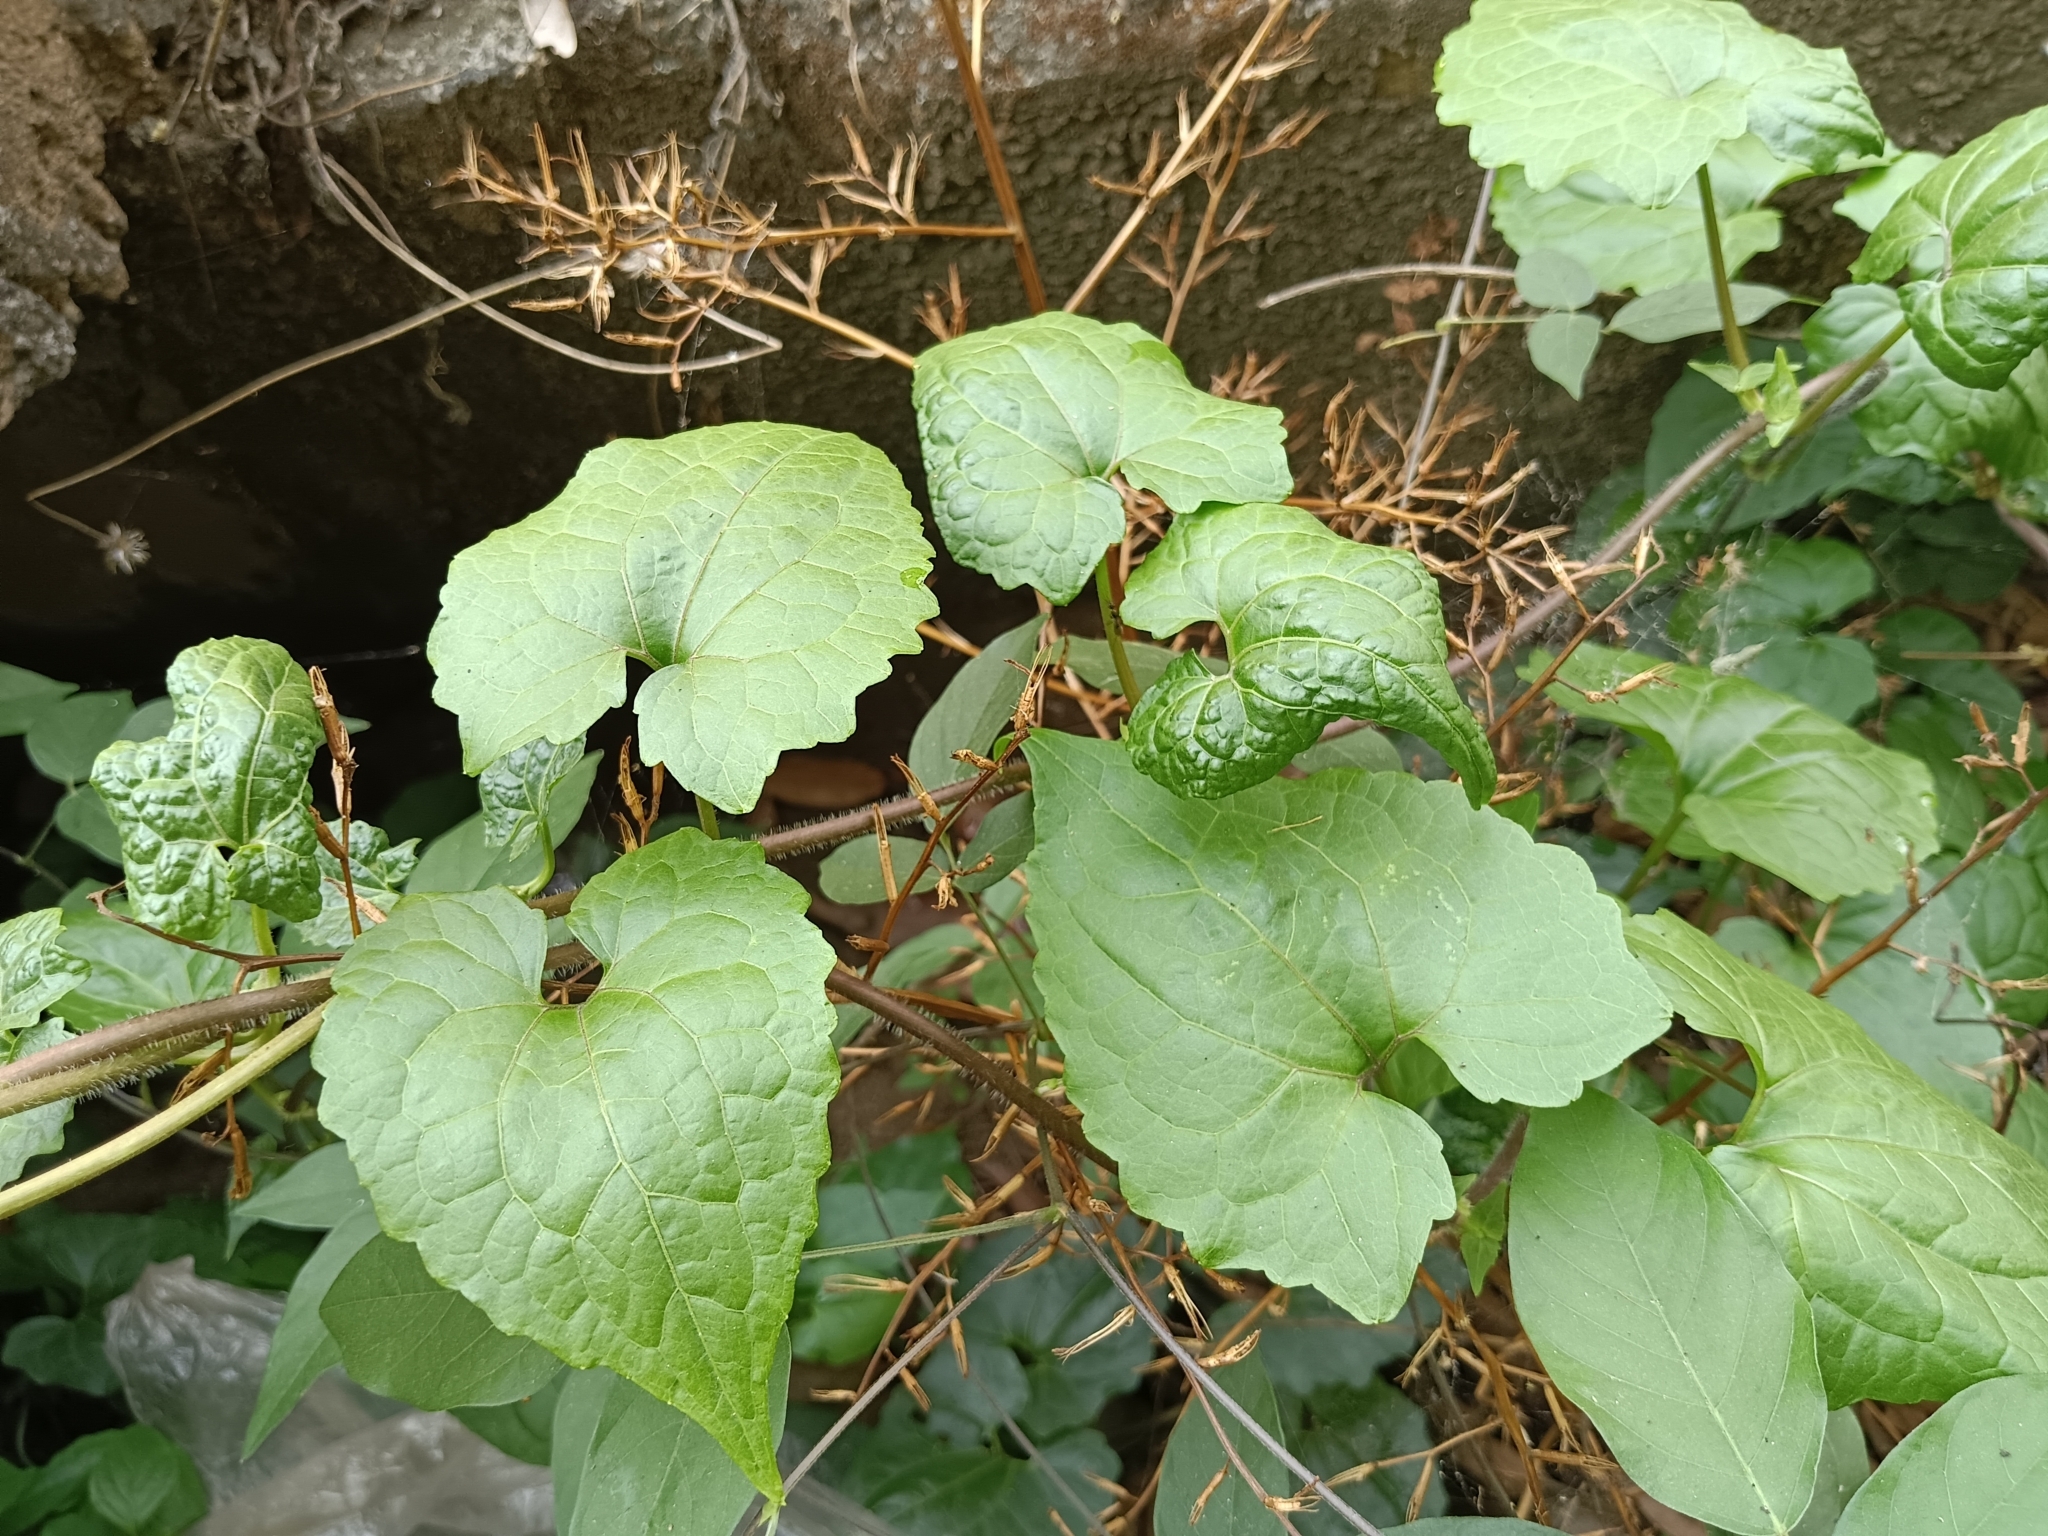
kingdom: Plantae
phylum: Tracheophyta
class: Magnoliopsida
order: Asterales
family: Asteraceae
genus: Mikania
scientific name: Mikania micrantha
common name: Mile-a-minute
